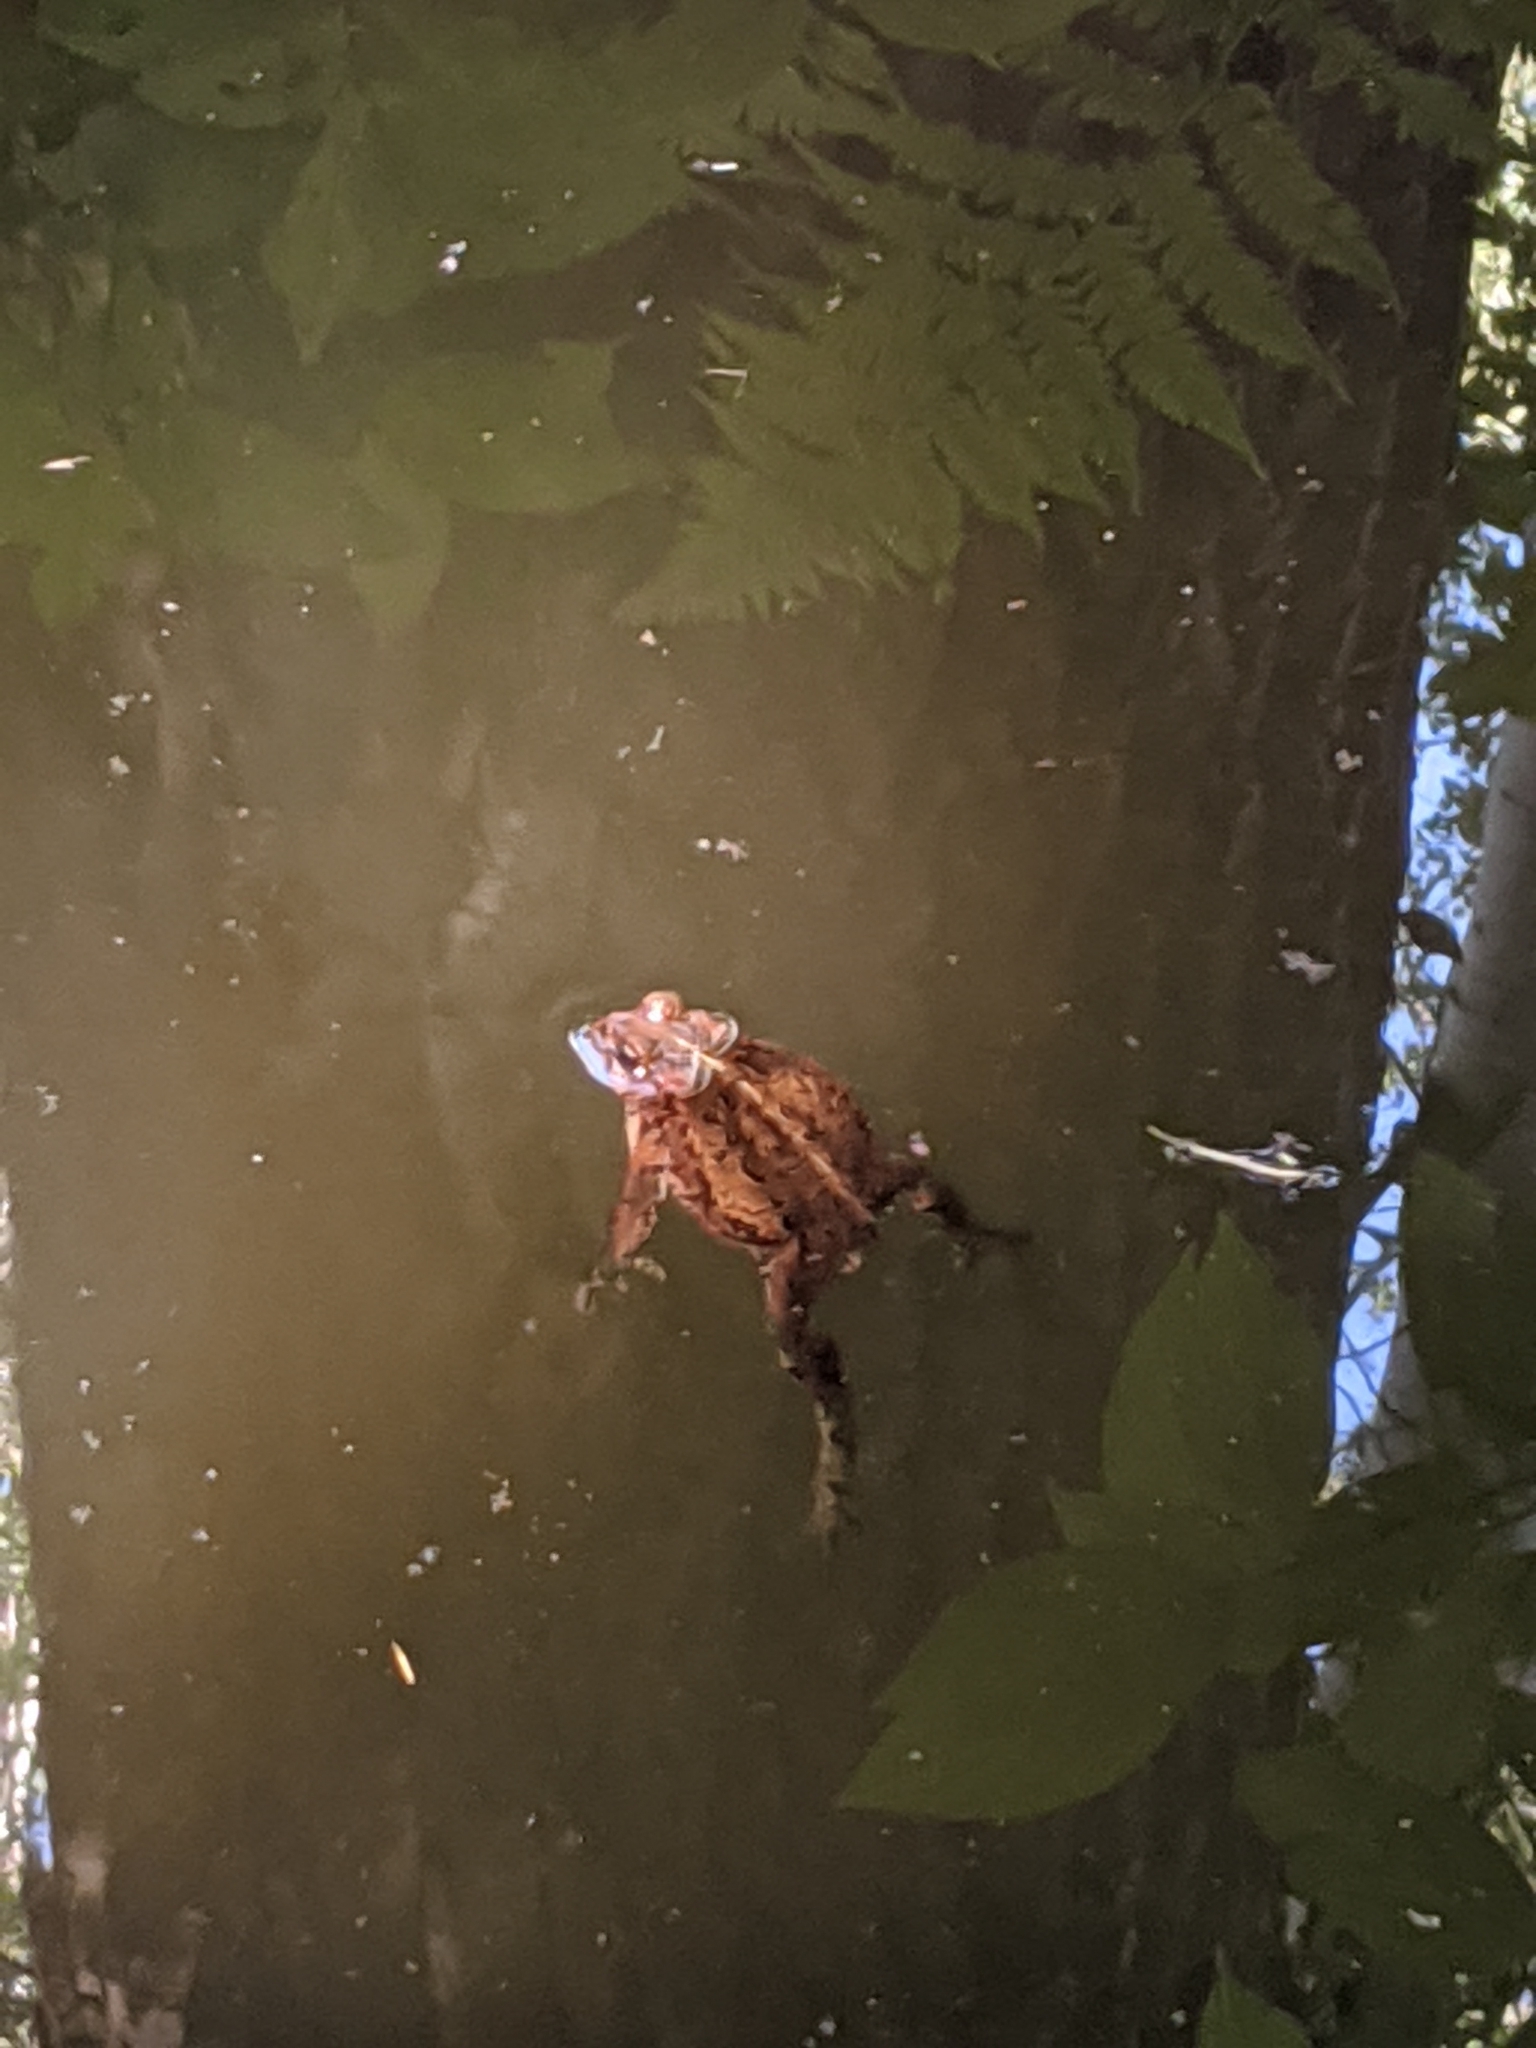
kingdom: Animalia
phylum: Chordata
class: Amphibia
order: Anura
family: Bufonidae
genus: Anaxyrus
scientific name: Anaxyrus boreas
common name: Western toad
